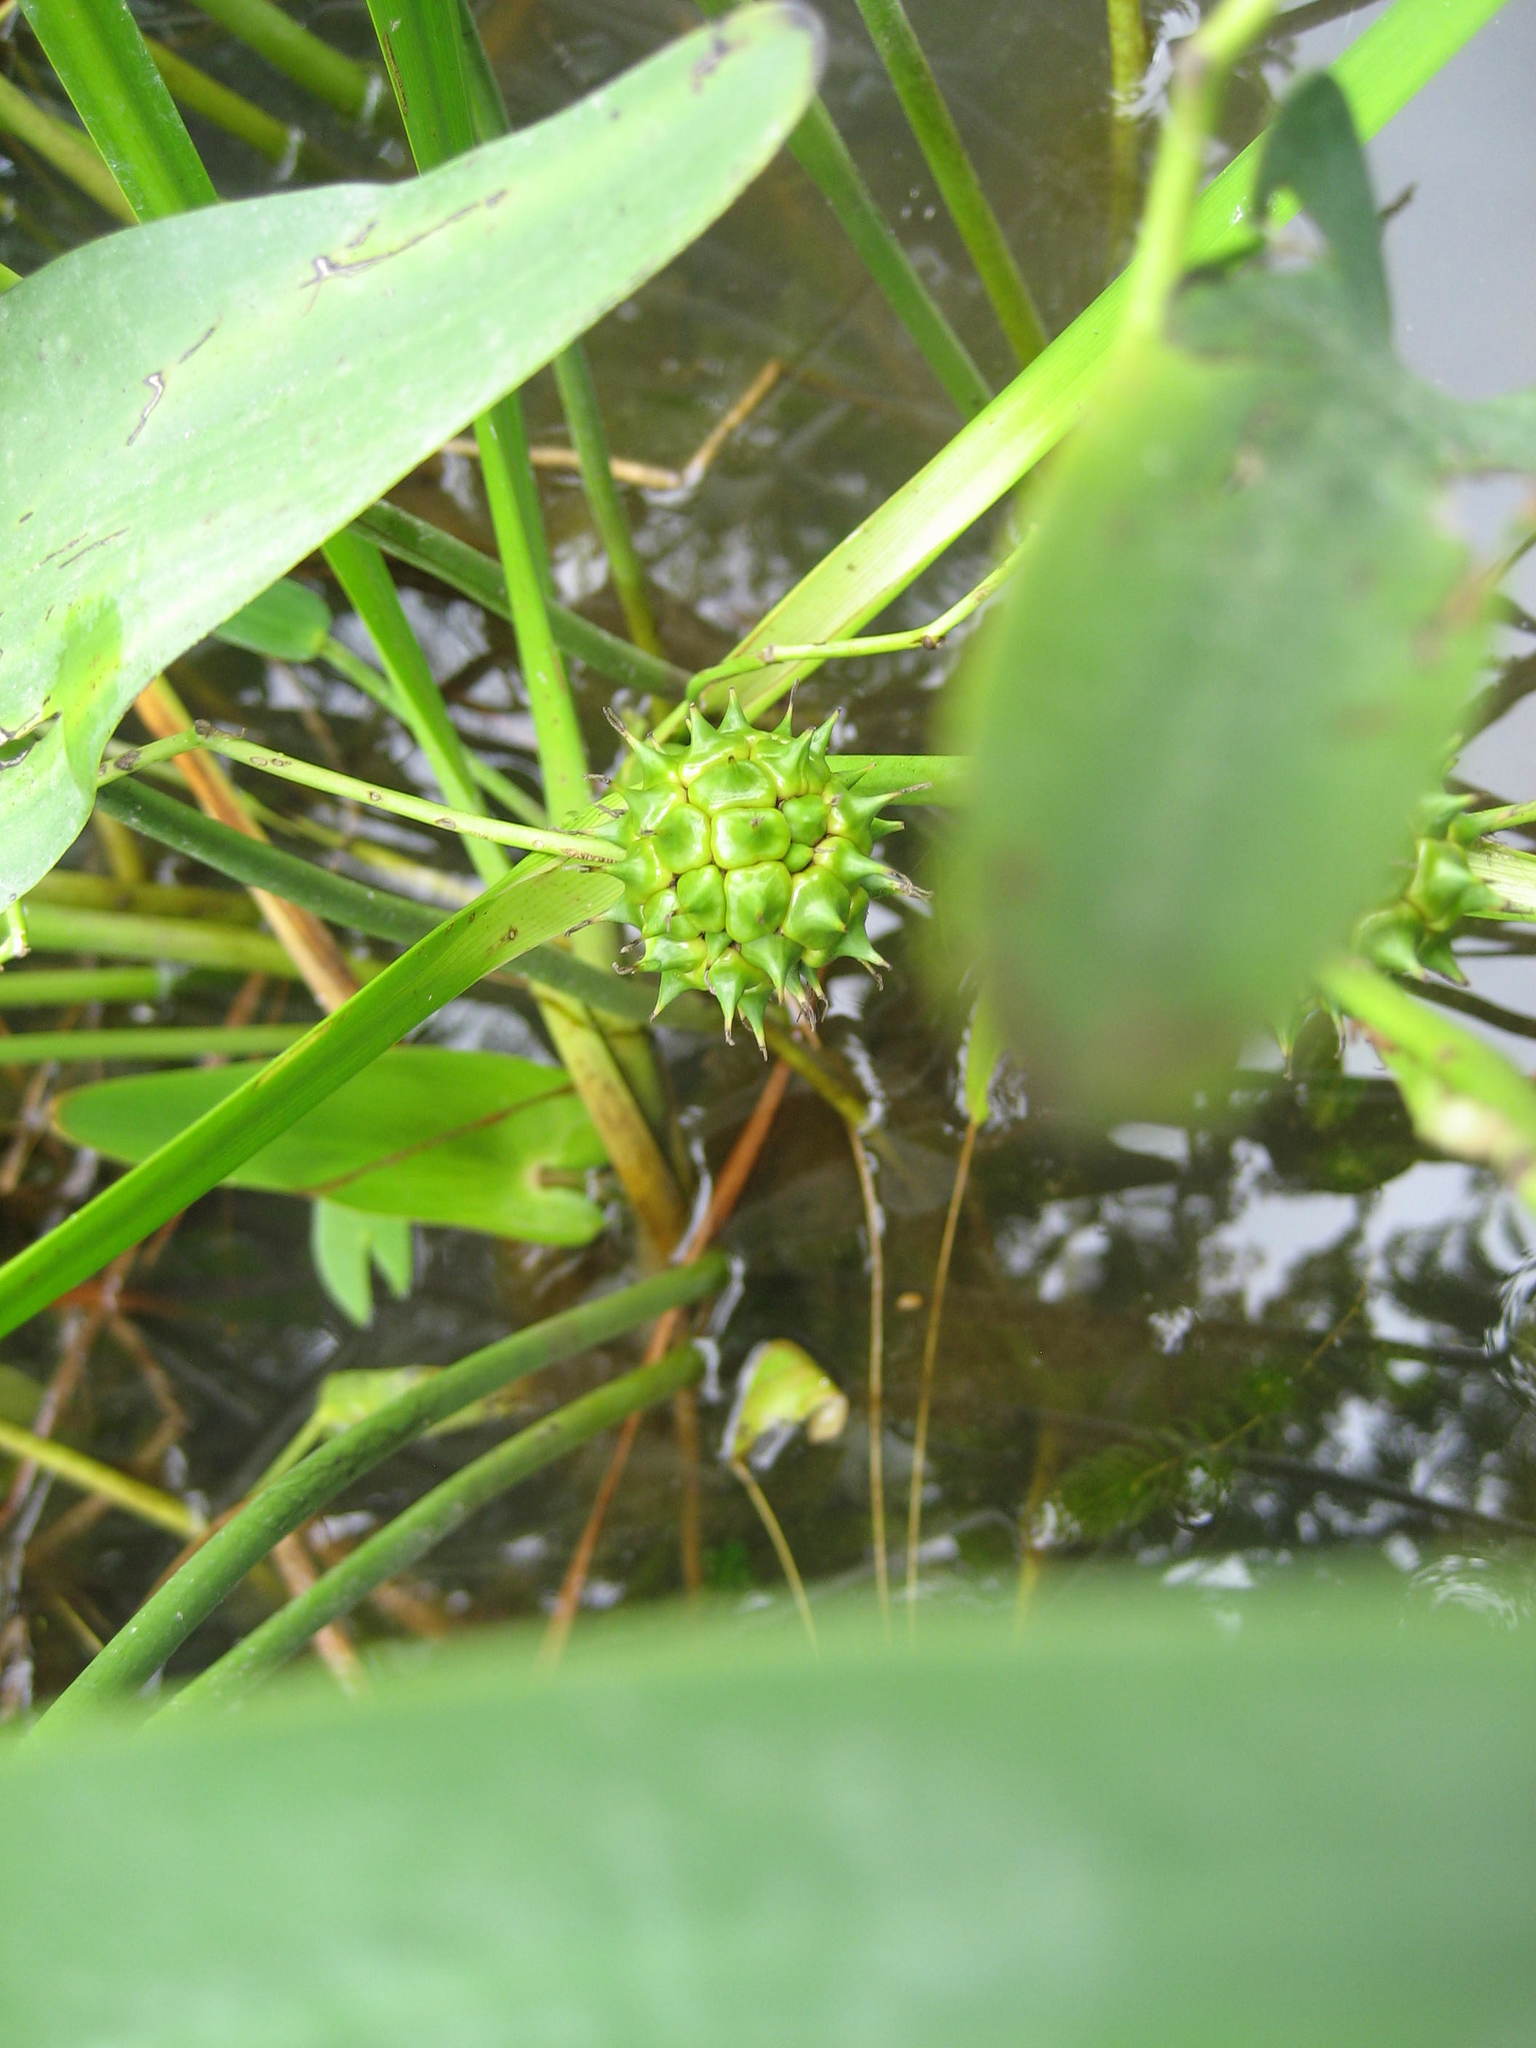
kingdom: Plantae
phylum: Tracheophyta
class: Liliopsida
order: Poales
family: Typhaceae
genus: Sparganium
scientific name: Sparganium eurycarpum
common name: Broad-fruited burreed
